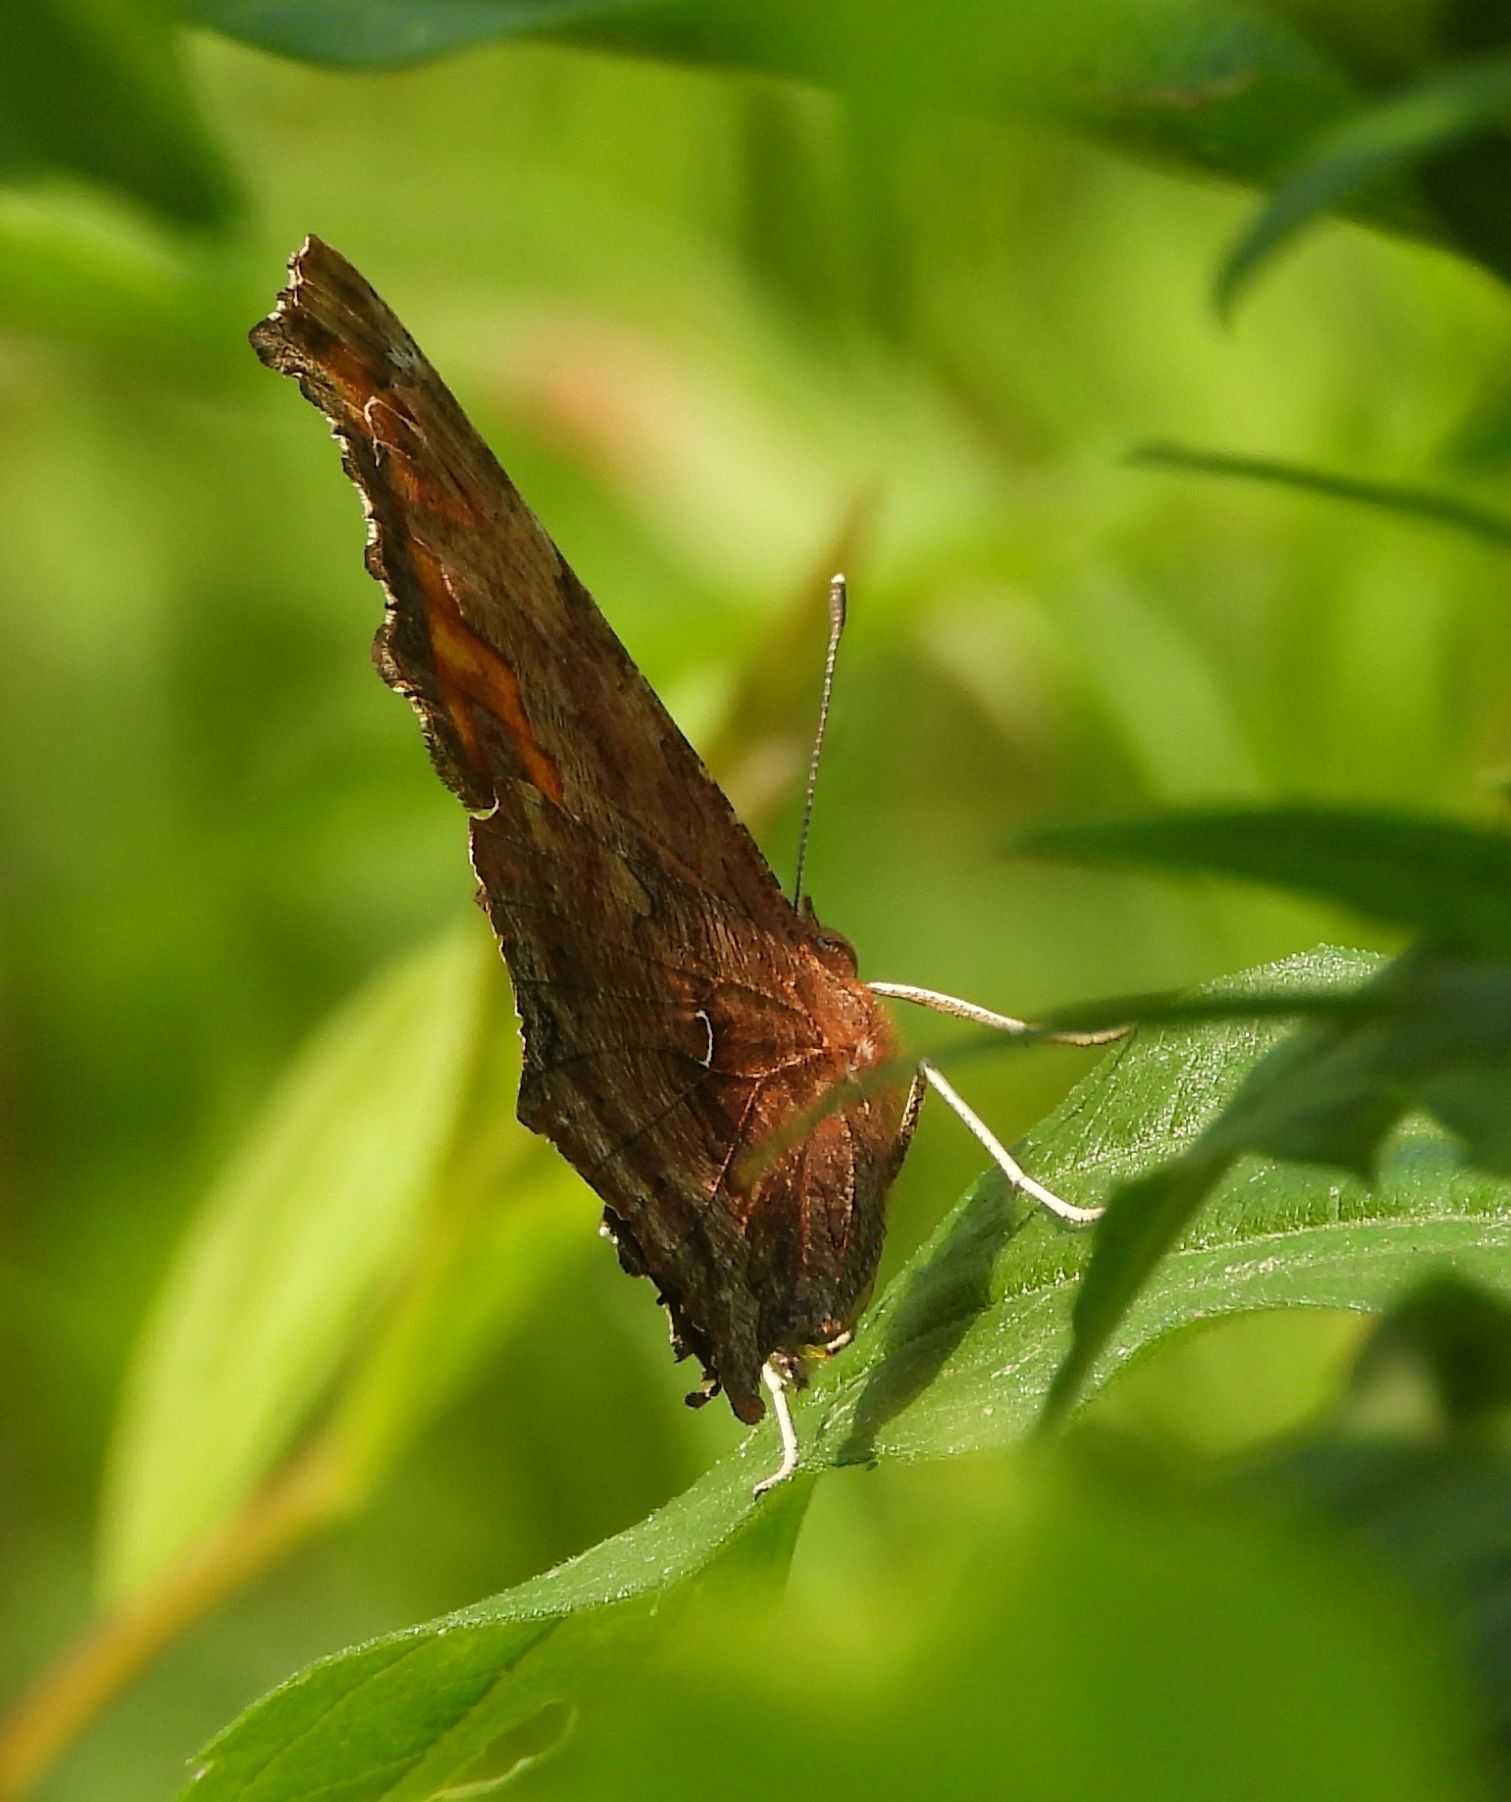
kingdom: Animalia
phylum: Arthropoda
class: Insecta
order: Lepidoptera
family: Nymphalidae
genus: Polygonia
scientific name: Polygonia comma
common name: Eastern comma
